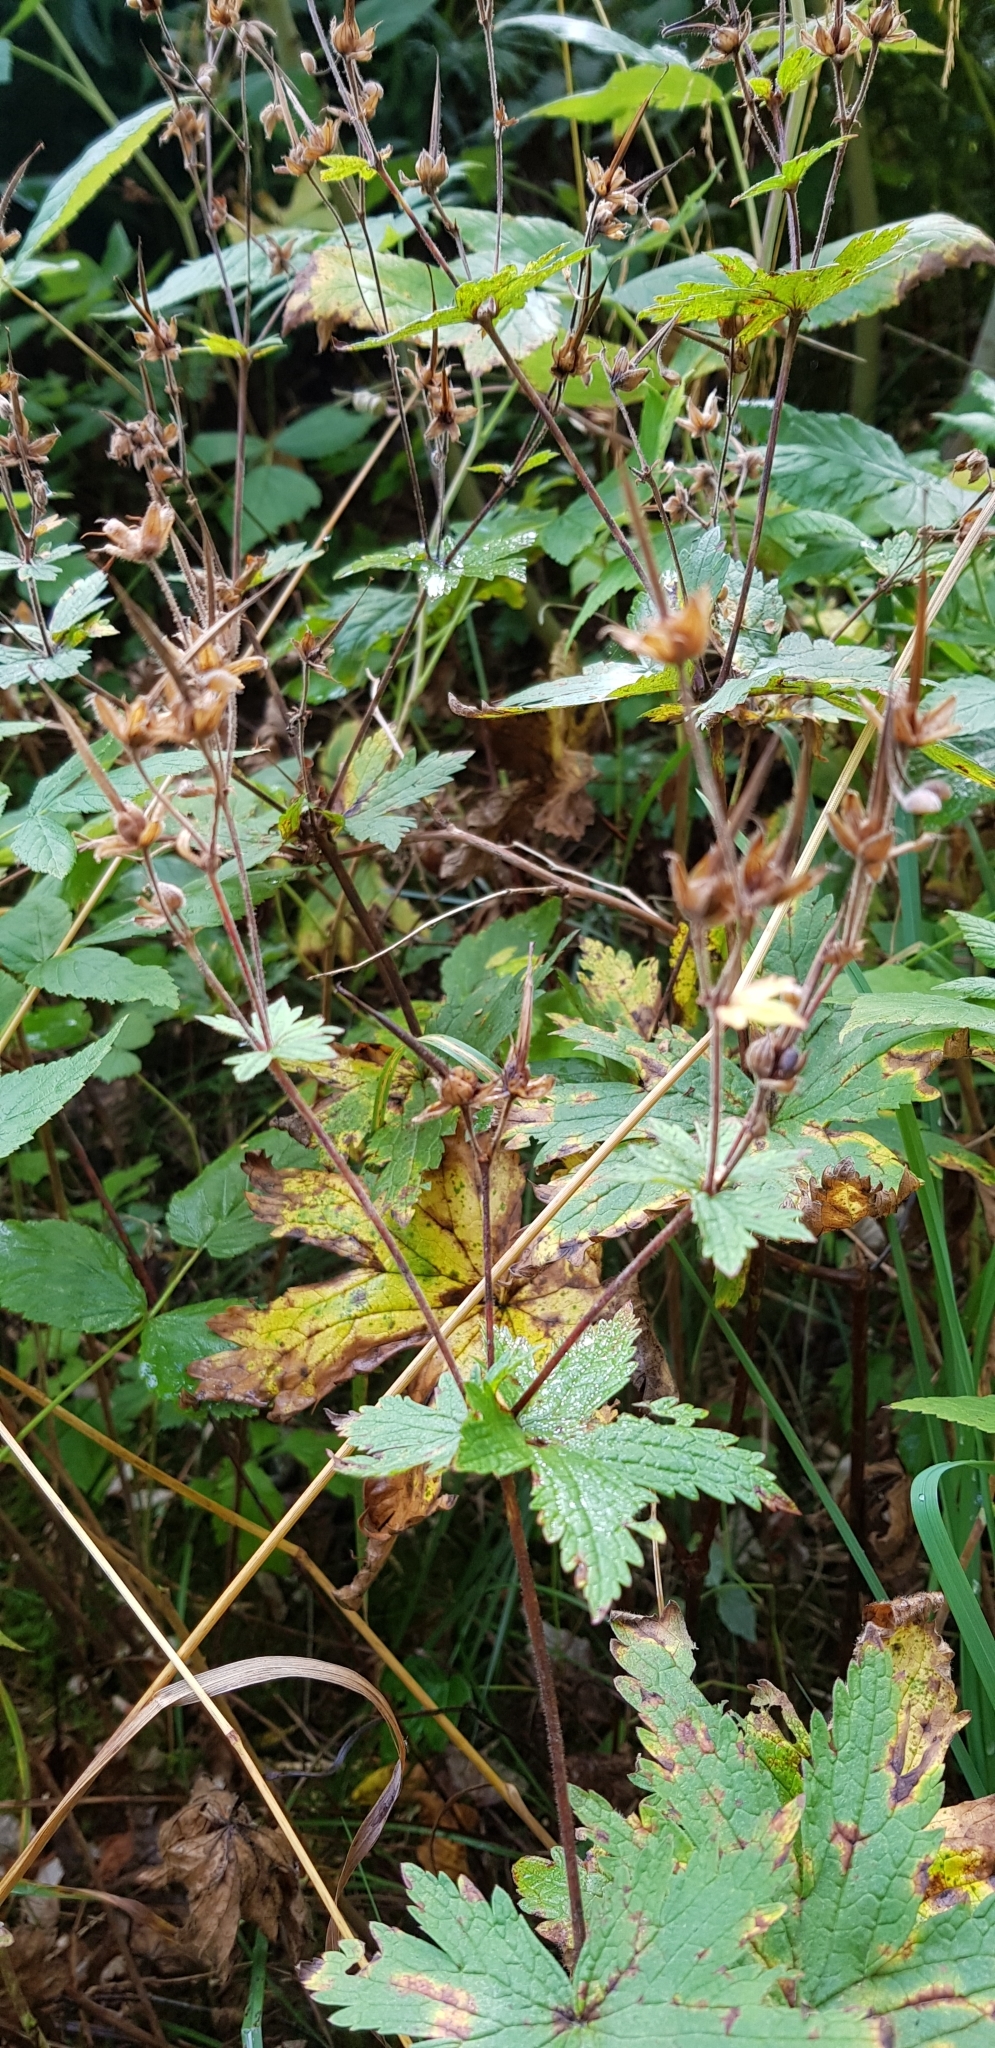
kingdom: Plantae
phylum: Tracheophyta
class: Magnoliopsida
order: Geraniales
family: Geraniaceae
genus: Geranium
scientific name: Geranium sylvaticum
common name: Wood crane's-bill
